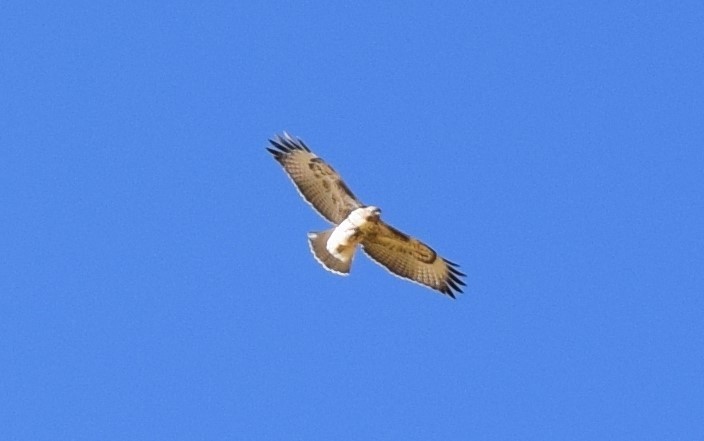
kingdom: Animalia
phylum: Chordata
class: Aves
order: Accipitriformes
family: Accipitridae
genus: Buteo
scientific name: Buteo jamaicensis
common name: Red-tailed hawk
